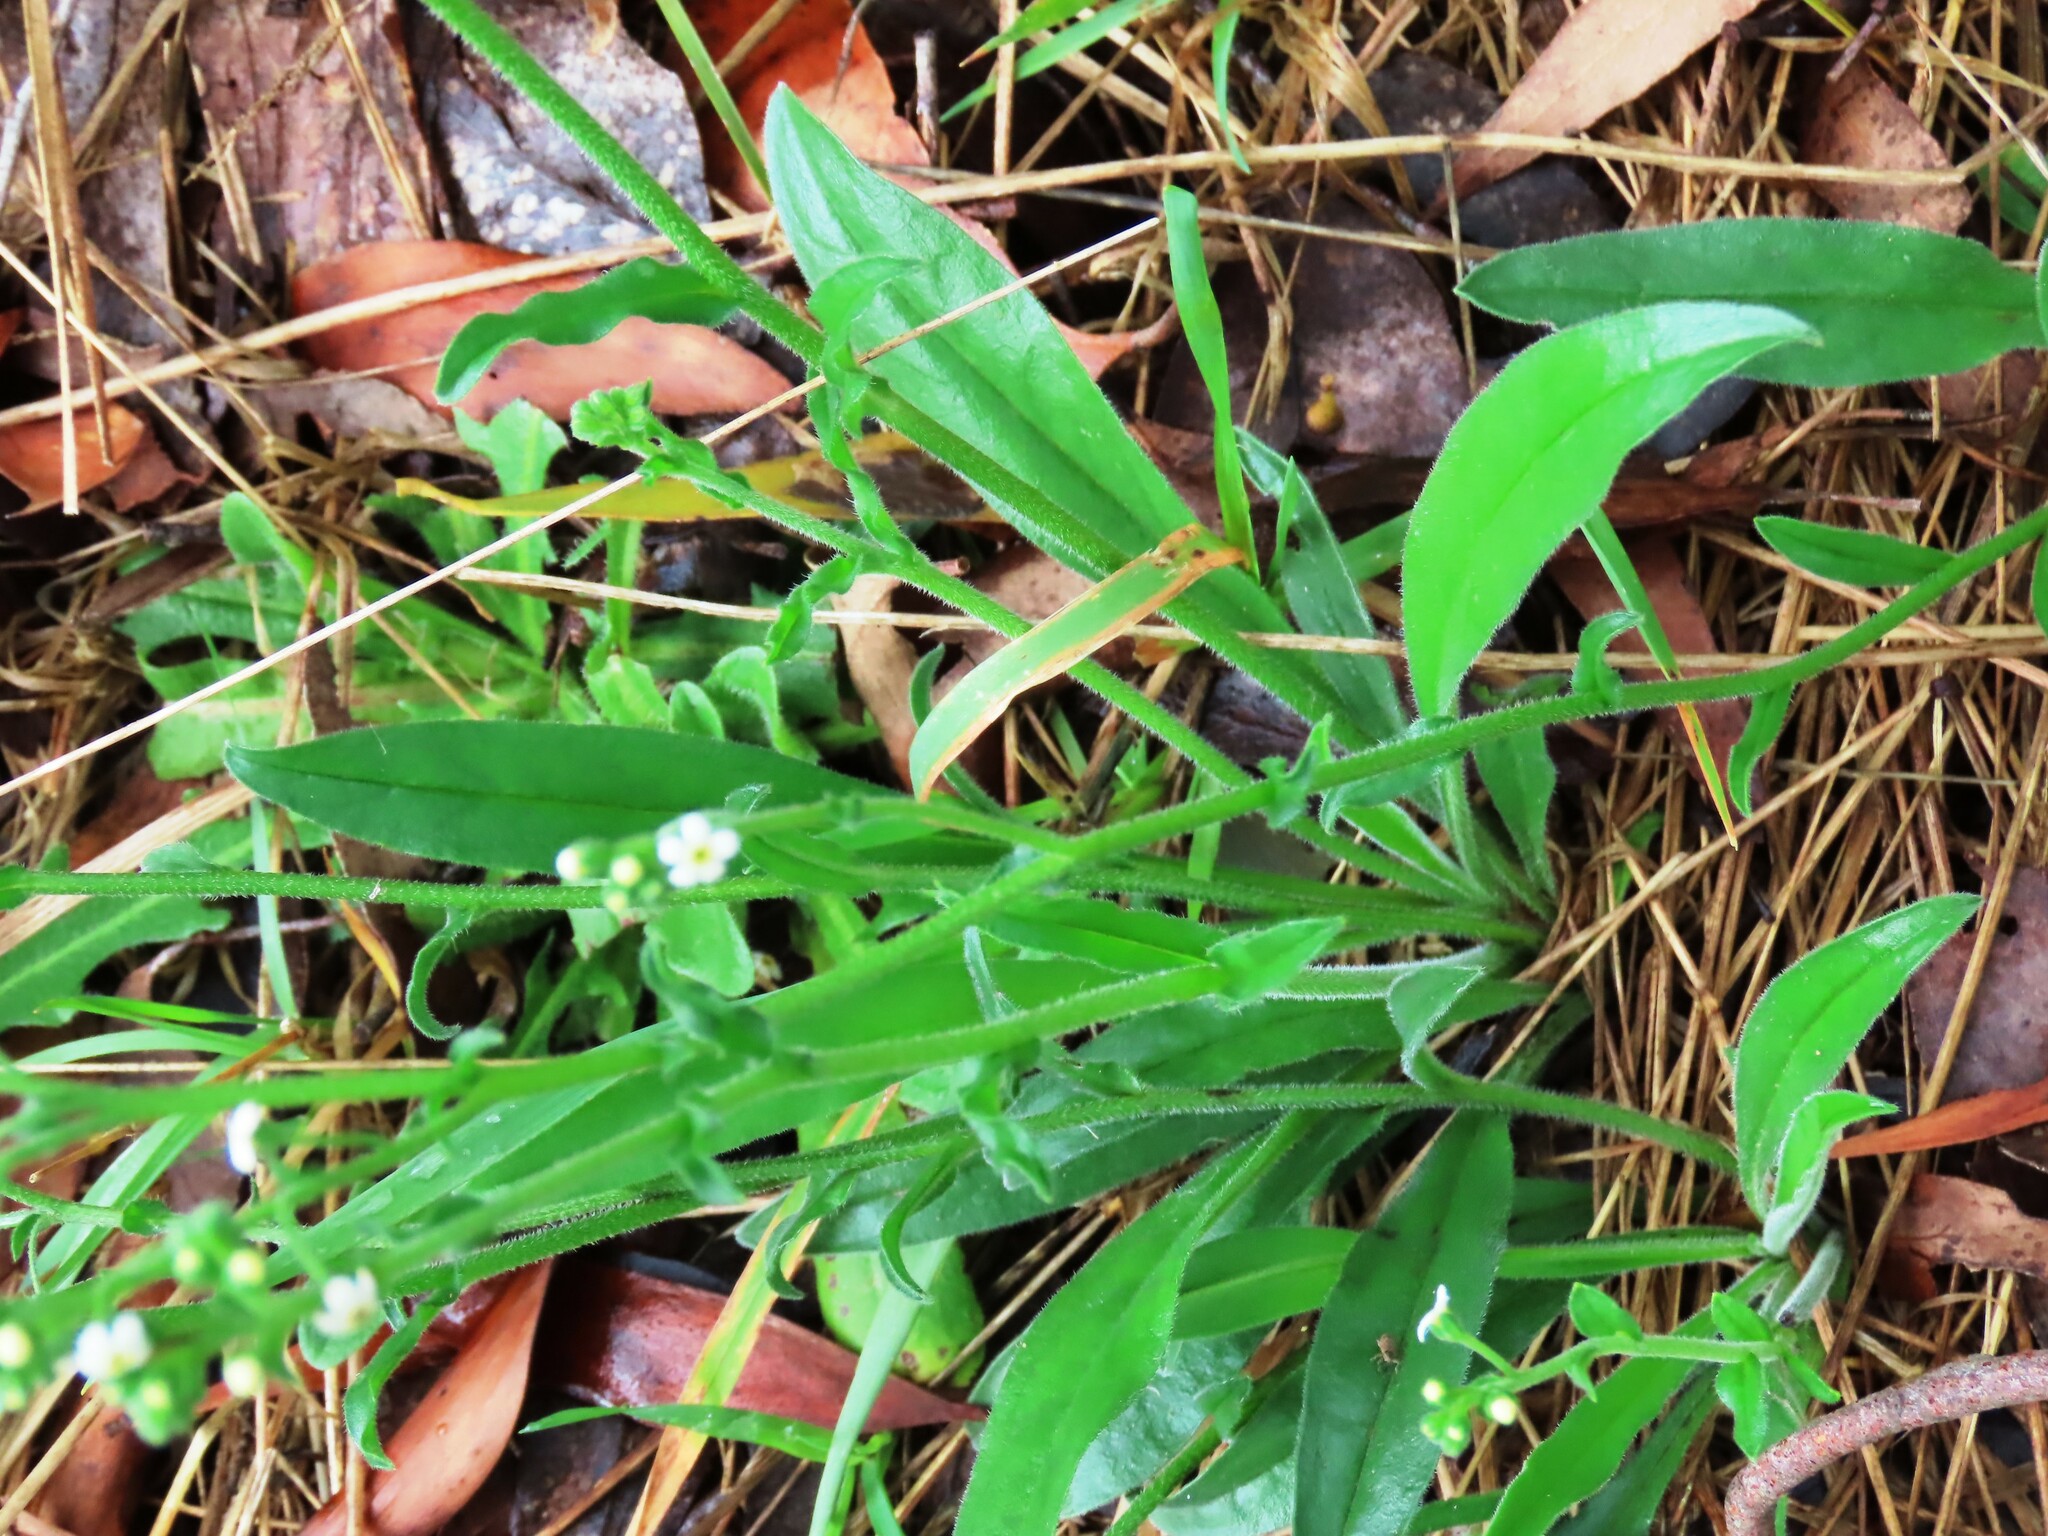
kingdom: Plantae
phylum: Tracheophyta
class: Magnoliopsida
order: Boraginales
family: Boraginaceae
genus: Hackelia
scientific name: Hackelia suaveolens
